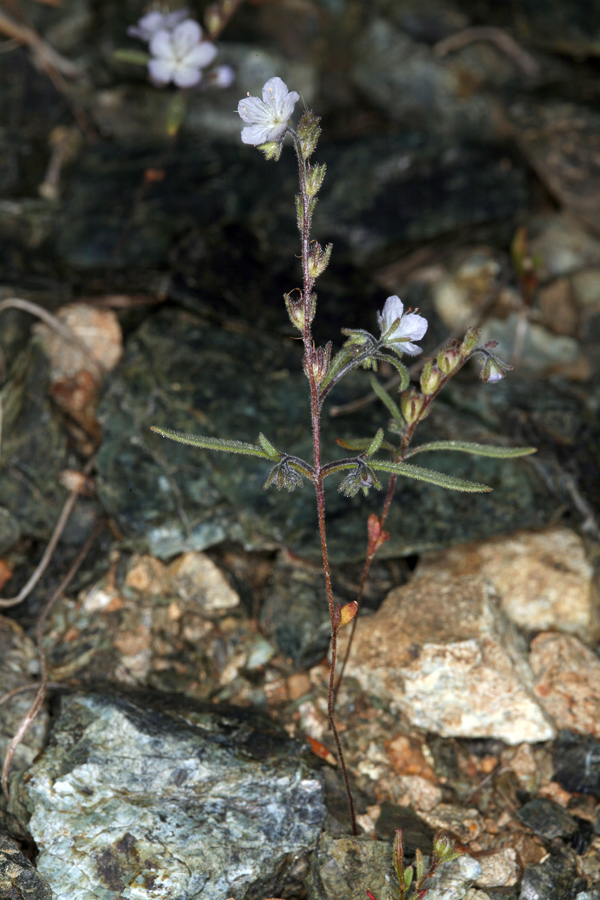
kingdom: Plantae
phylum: Tracheophyta
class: Magnoliopsida
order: Boraginales
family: Hydrophyllaceae
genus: Phacelia
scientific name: Phacelia pringlei
